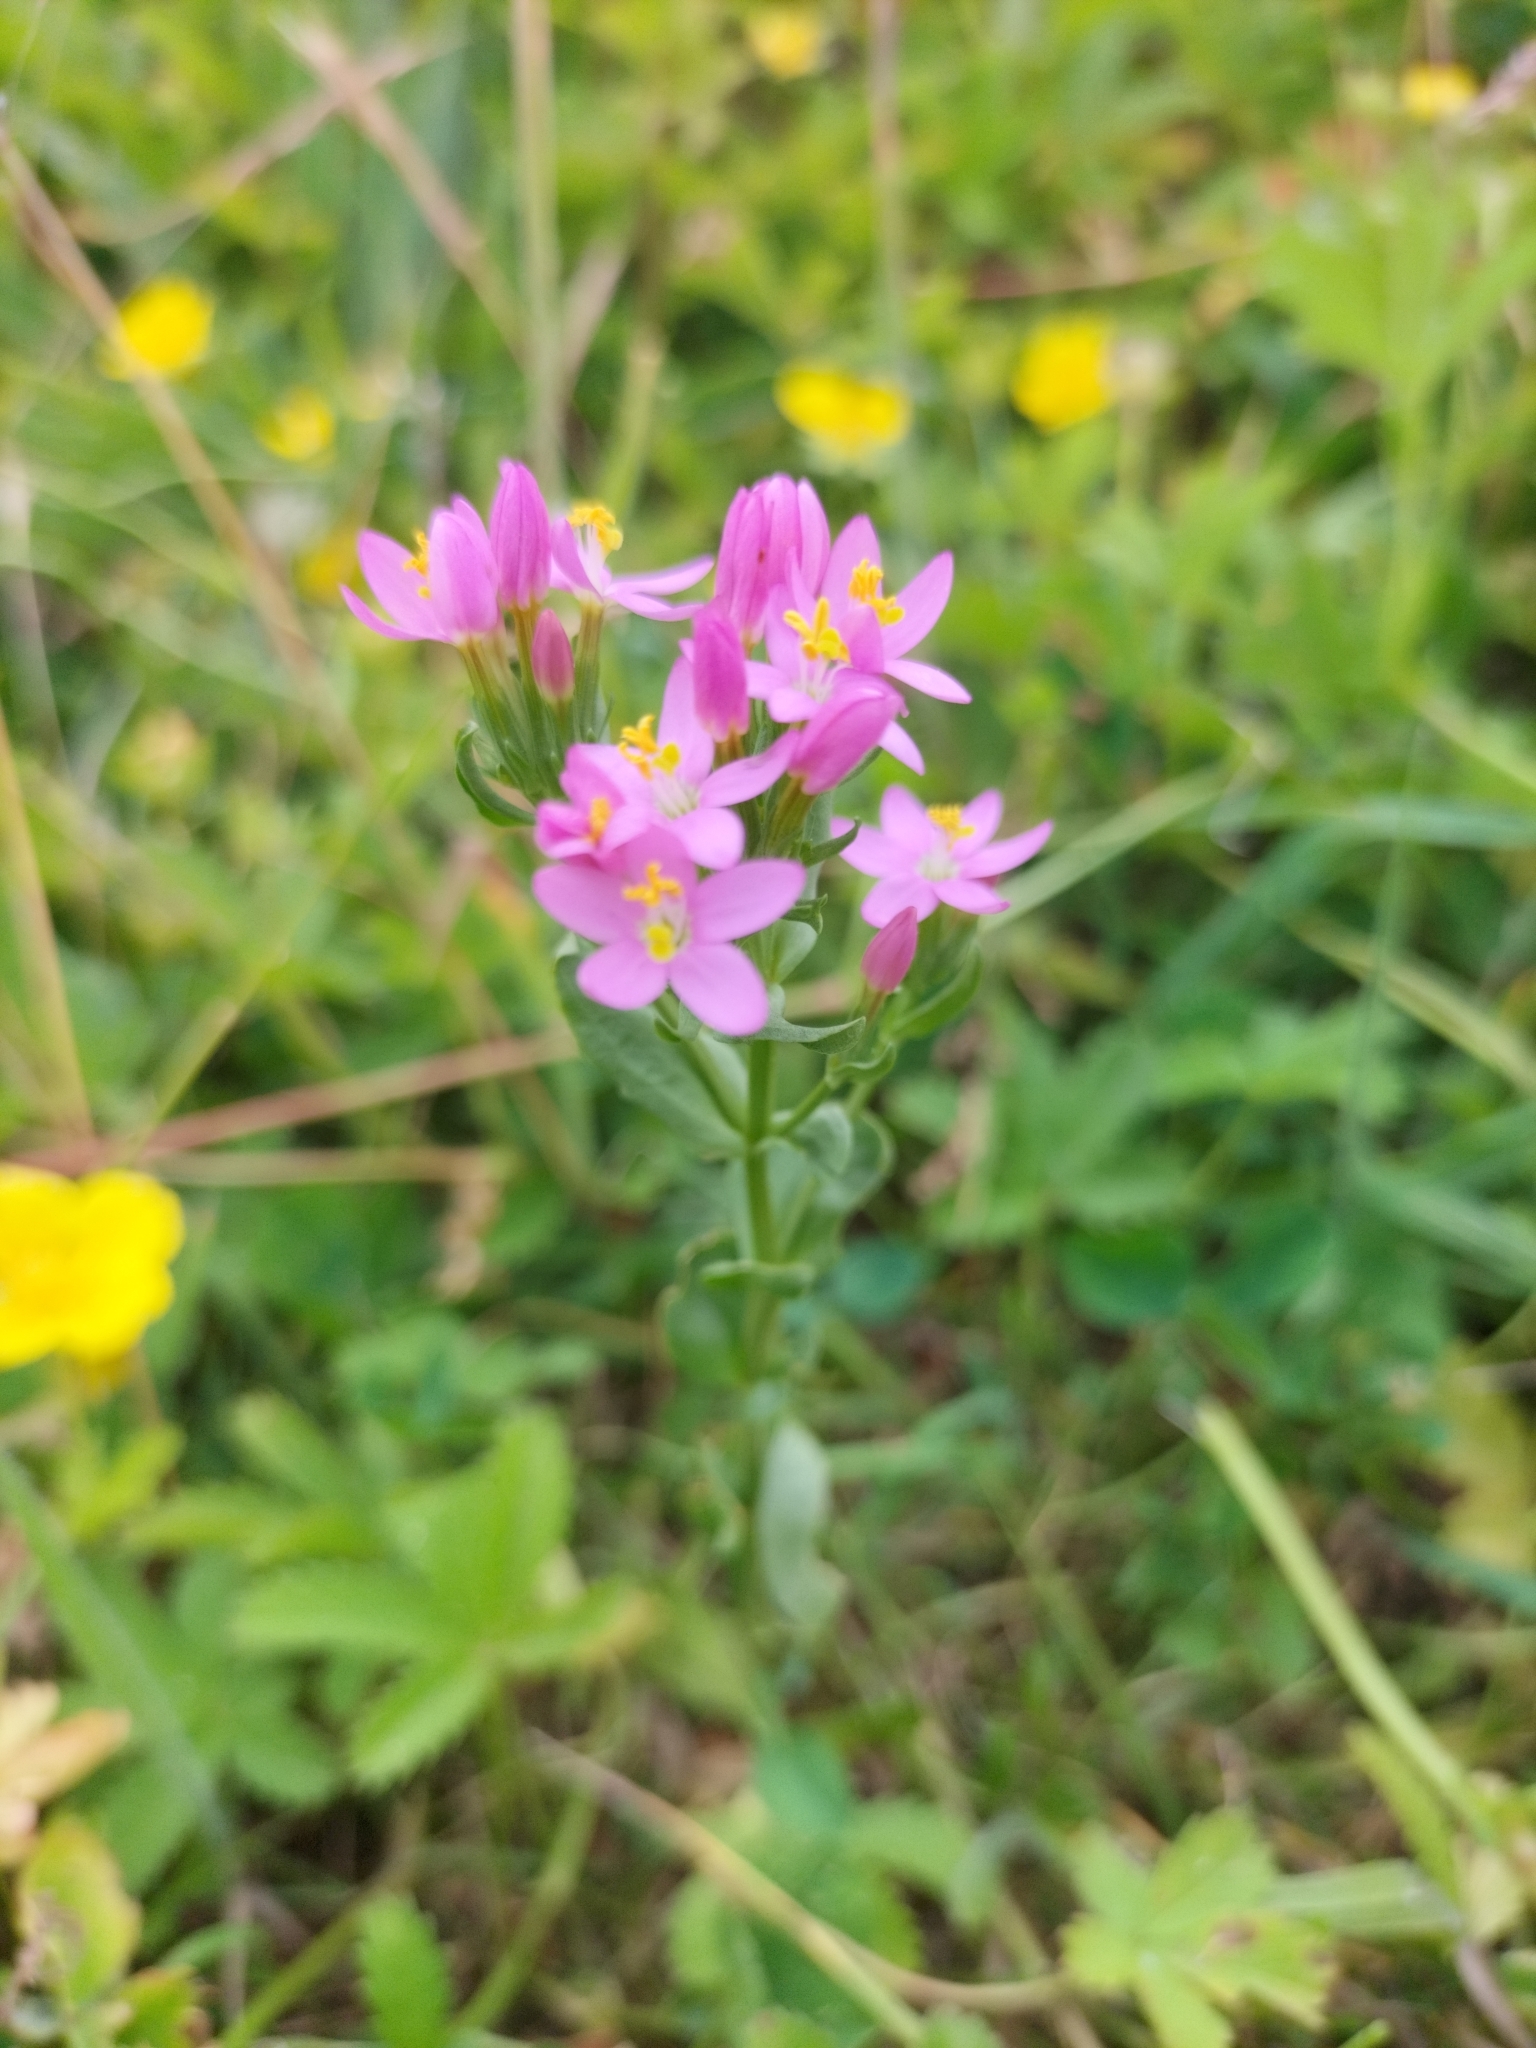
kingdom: Plantae
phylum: Tracheophyta
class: Magnoliopsida
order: Gentianales
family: Gentianaceae
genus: Centaurium
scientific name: Centaurium erythraea
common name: Common centaury
